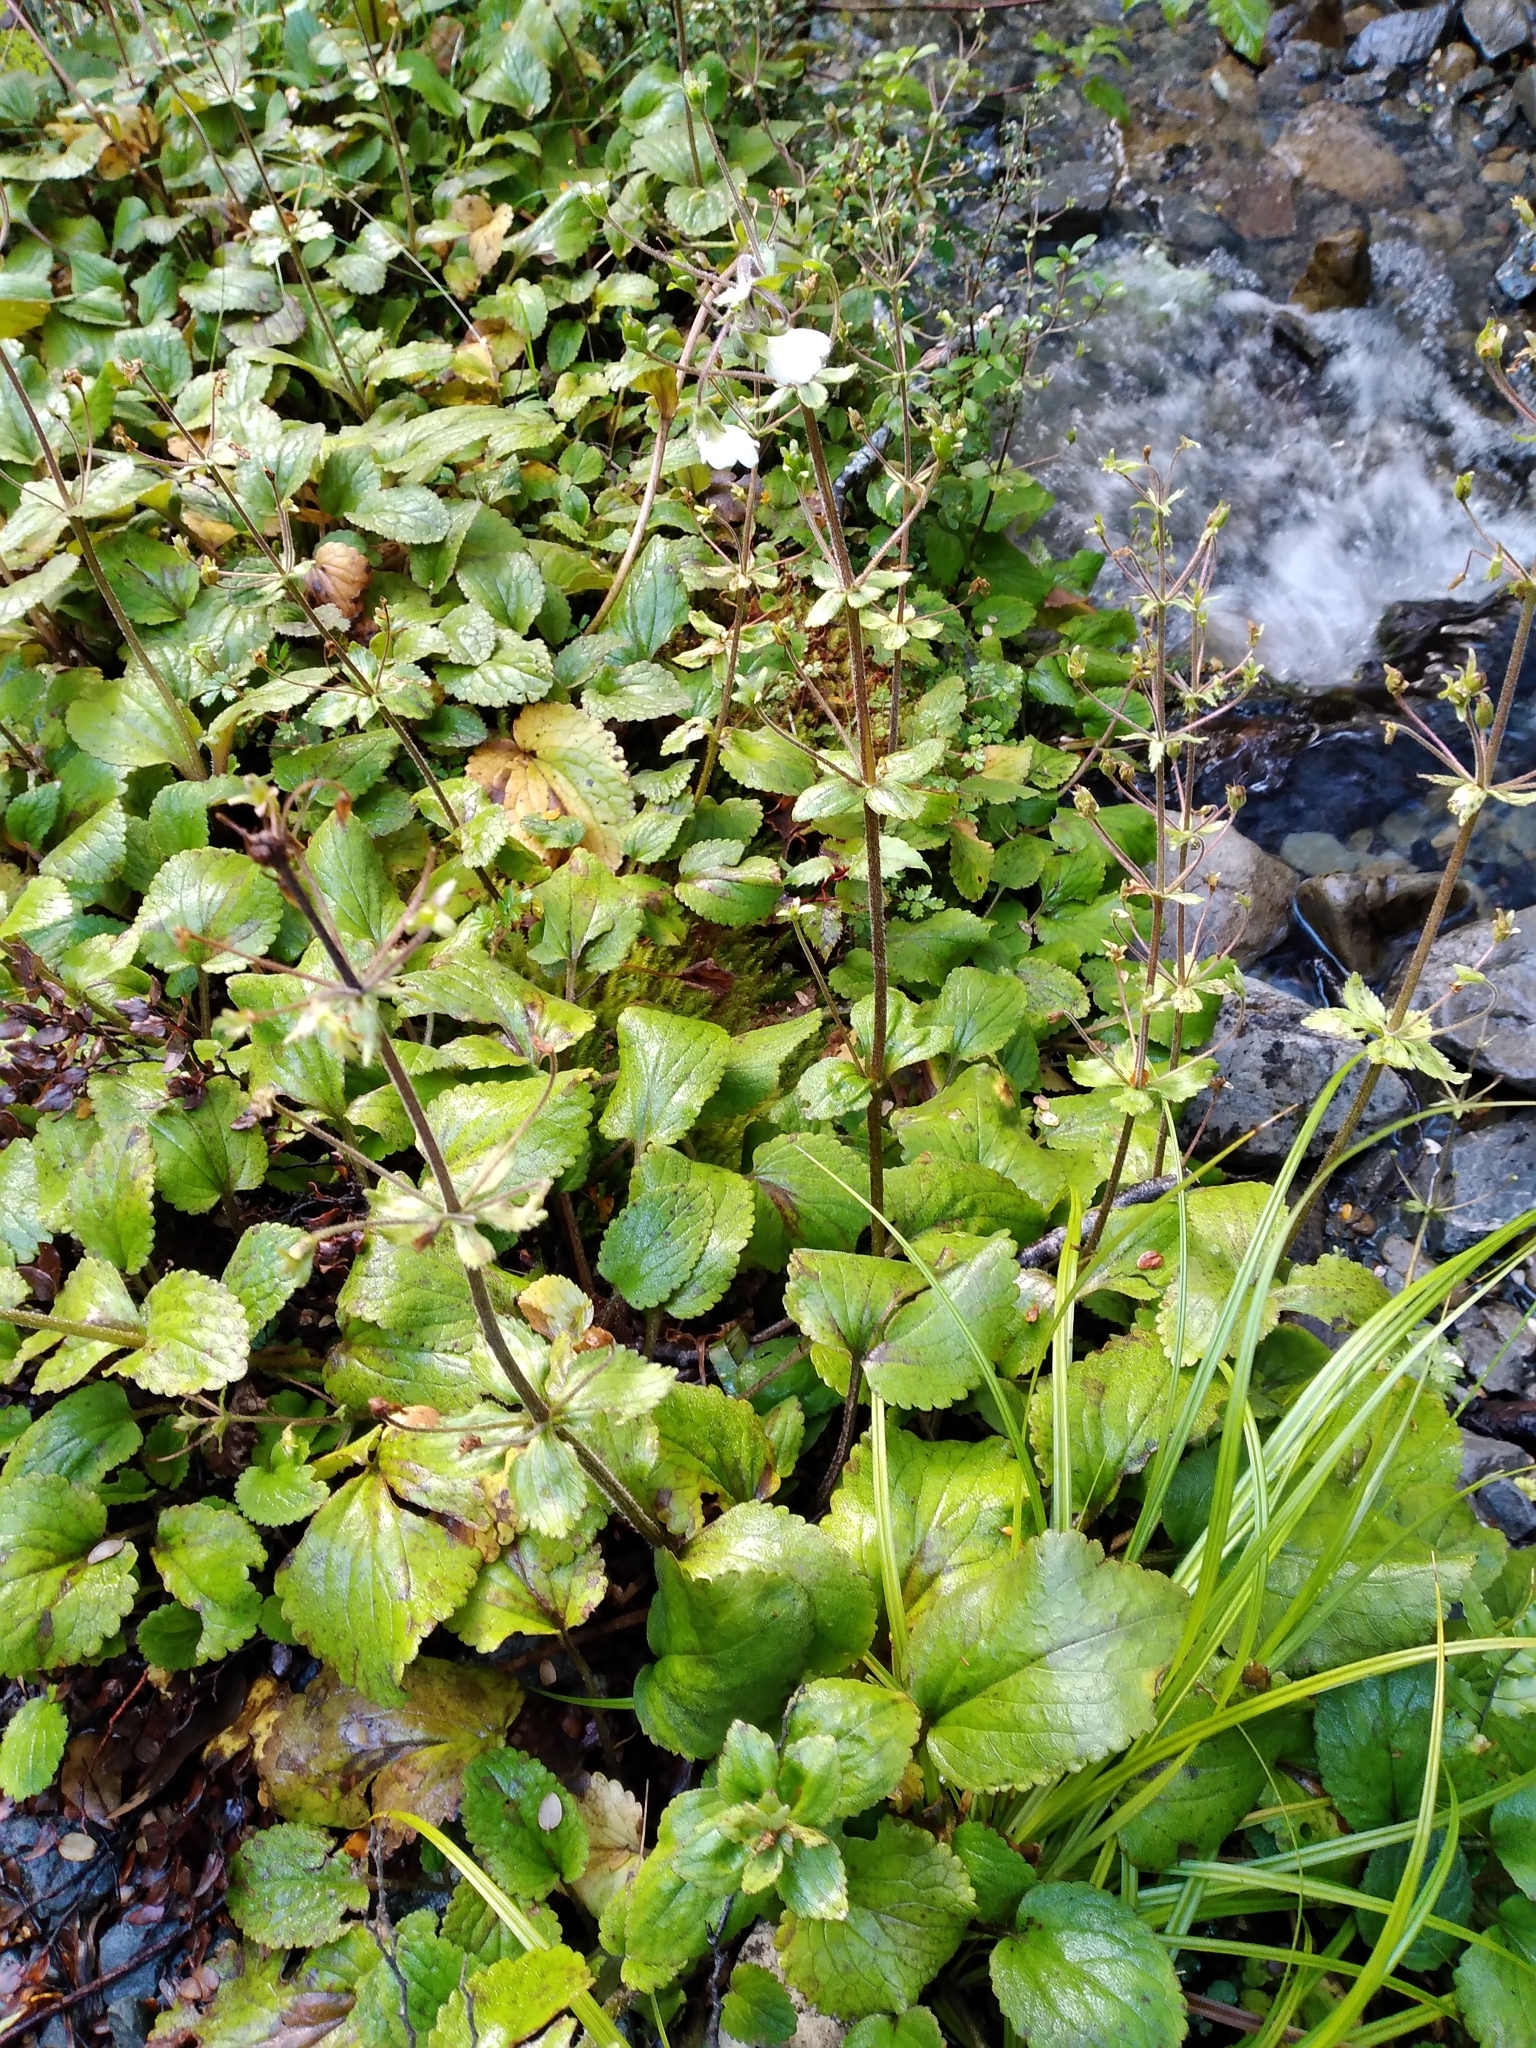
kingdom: Plantae
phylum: Tracheophyta
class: Magnoliopsida
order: Lamiales
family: Plantaginaceae
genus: Ourisia
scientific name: Ourisia macrophylla
